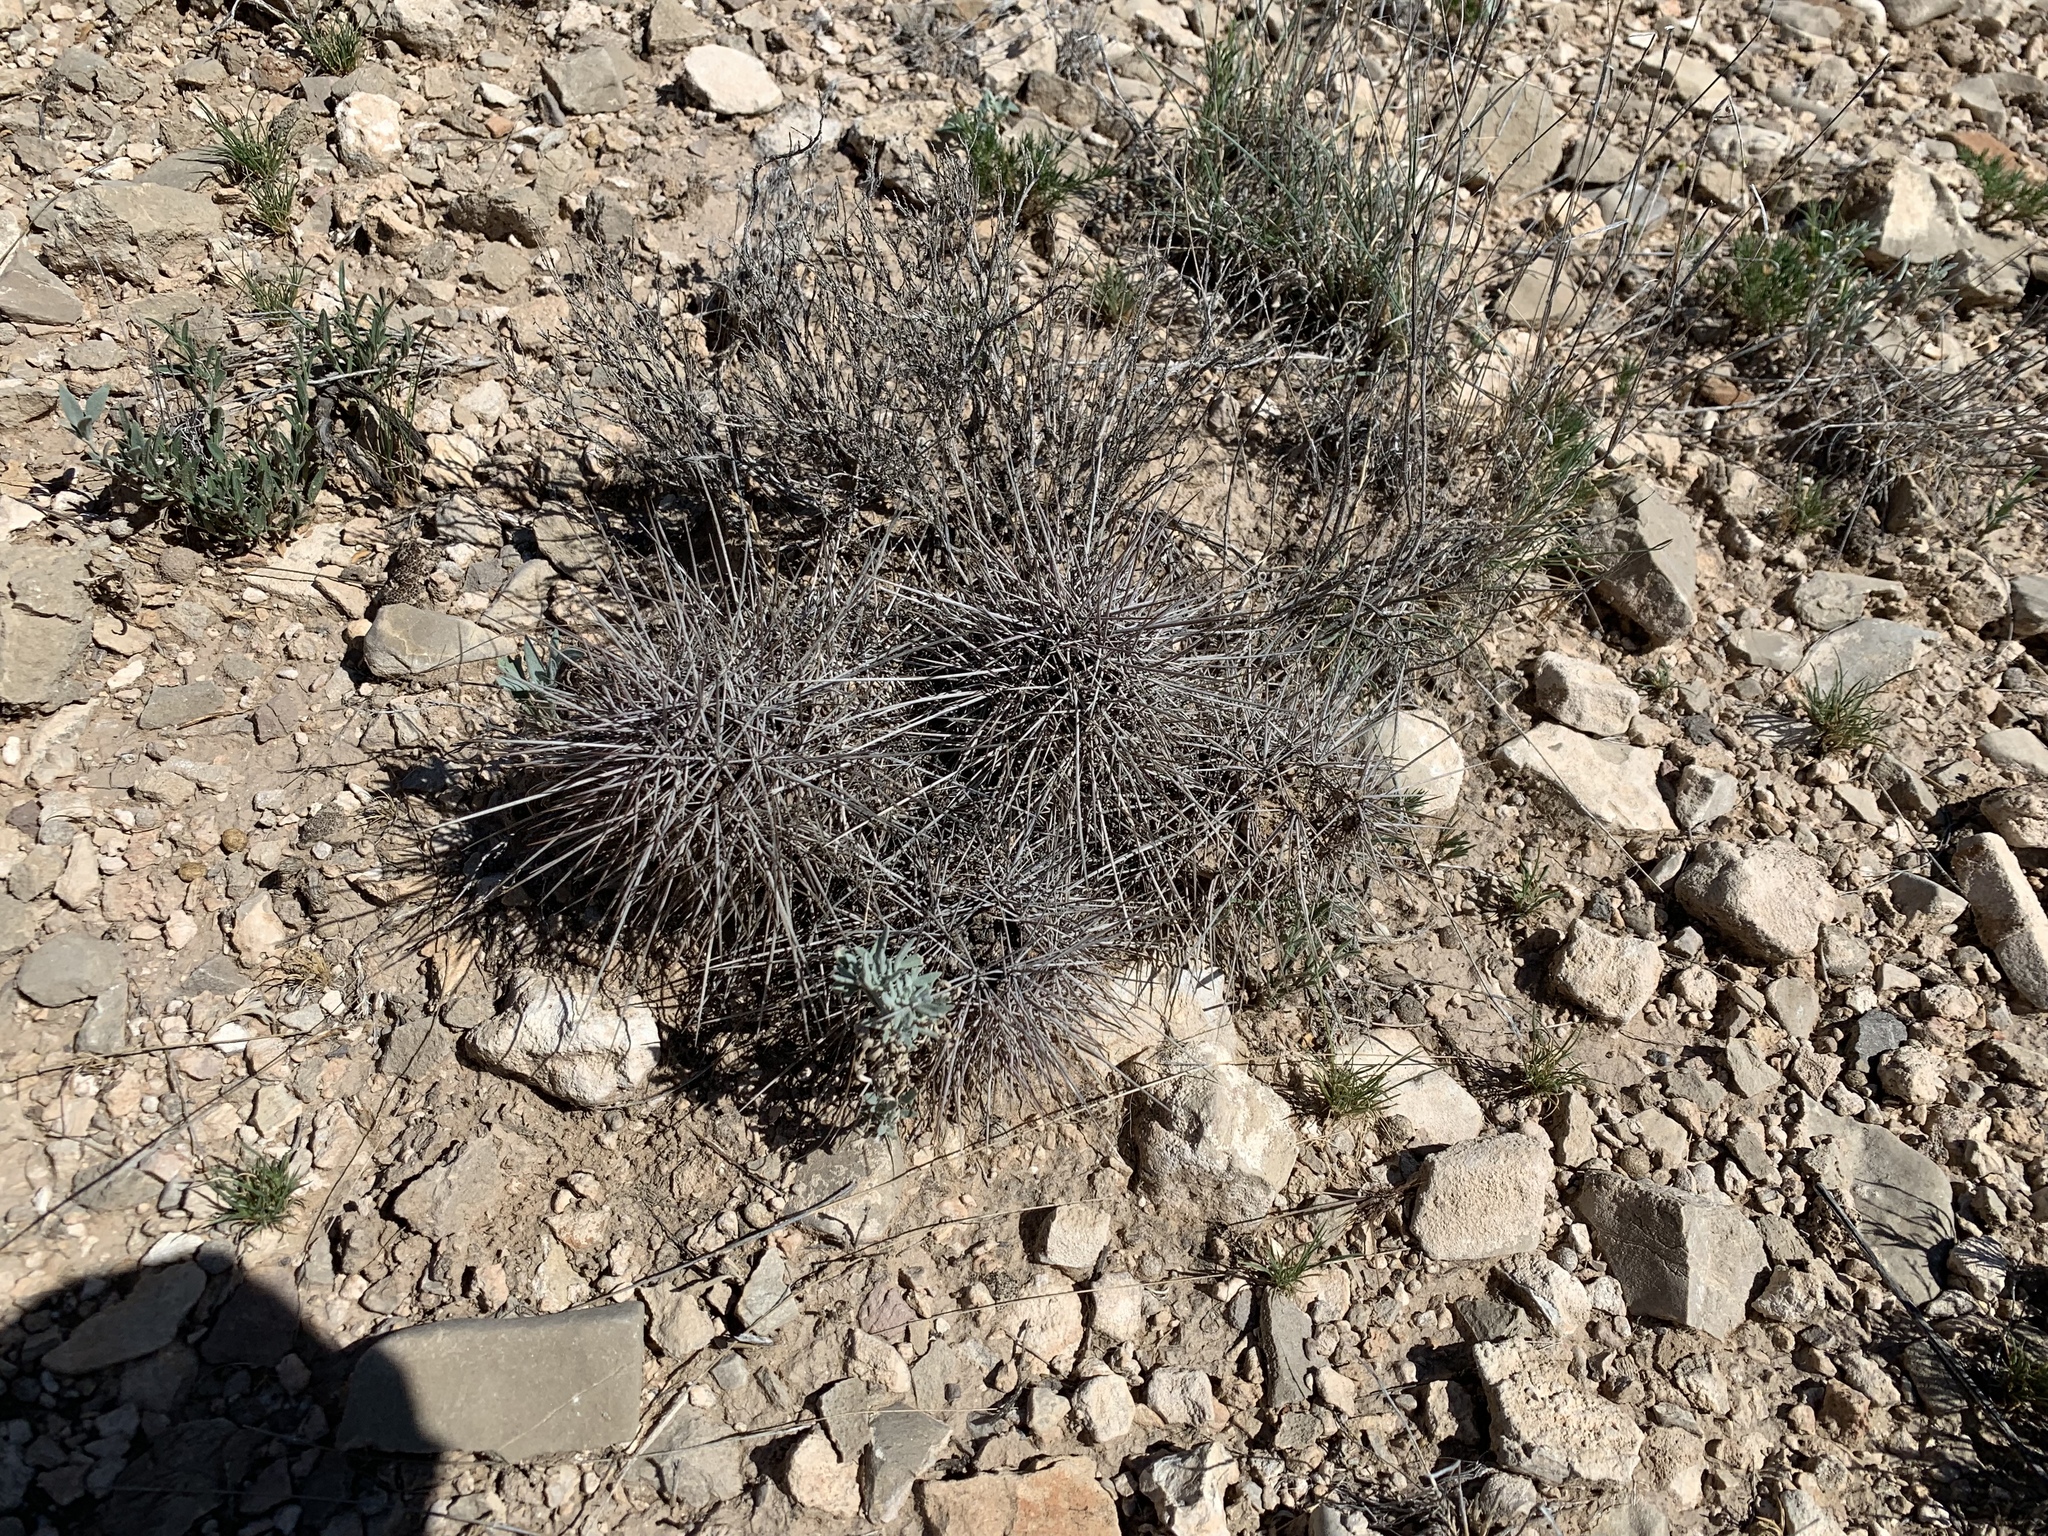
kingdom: Plantae
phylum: Tracheophyta
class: Magnoliopsida
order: Caryophyllales
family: Cactaceae
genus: Echinocereus
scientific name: Echinocereus coccineus
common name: Scarlet hedgehog cactus
